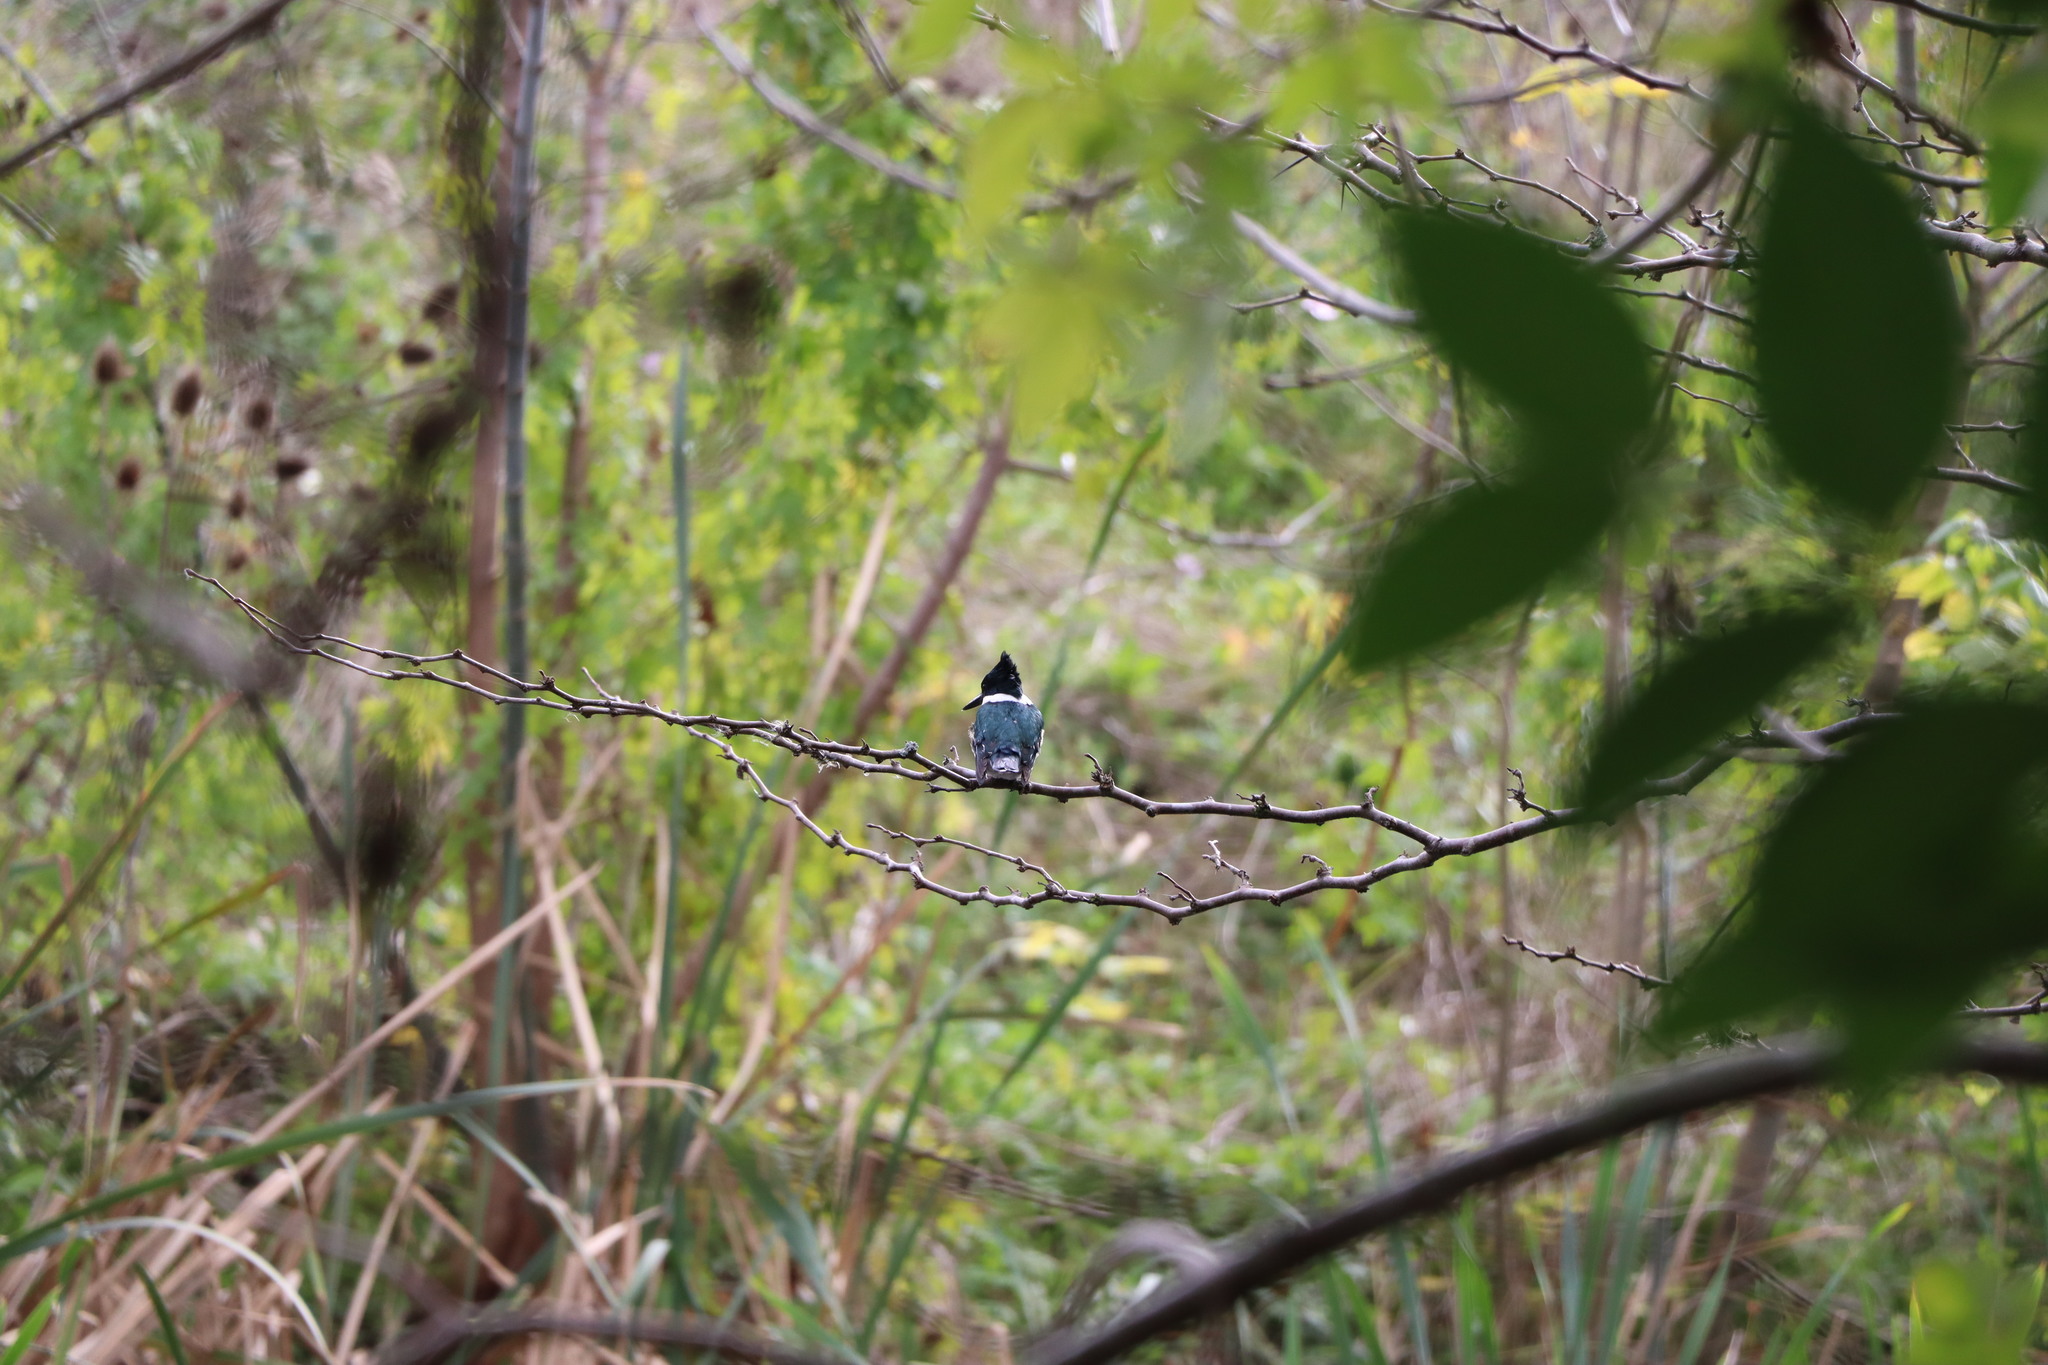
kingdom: Animalia
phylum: Chordata
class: Aves
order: Coraciiformes
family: Alcedinidae
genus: Chloroceryle
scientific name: Chloroceryle americana
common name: Green kingfisher
